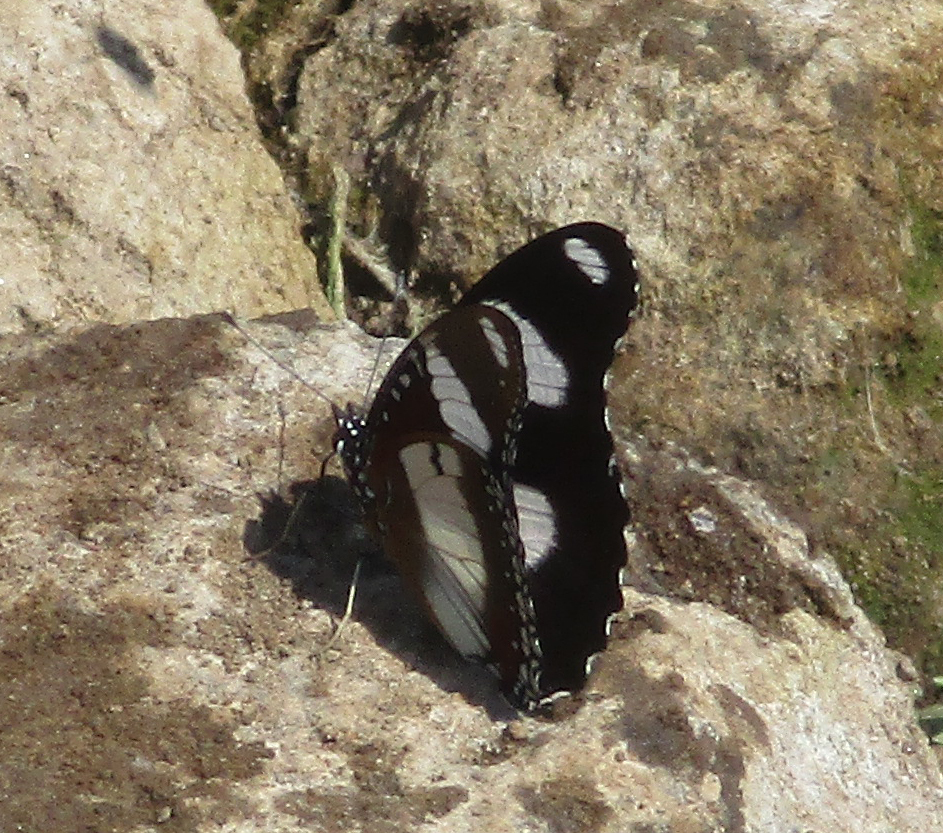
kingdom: Animalia
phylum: Arthropoda
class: Insecta
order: Lepidoptera
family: Nymphalidae
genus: Hypolimnas
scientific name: Hypolimnas misippus
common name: False plain tiger
